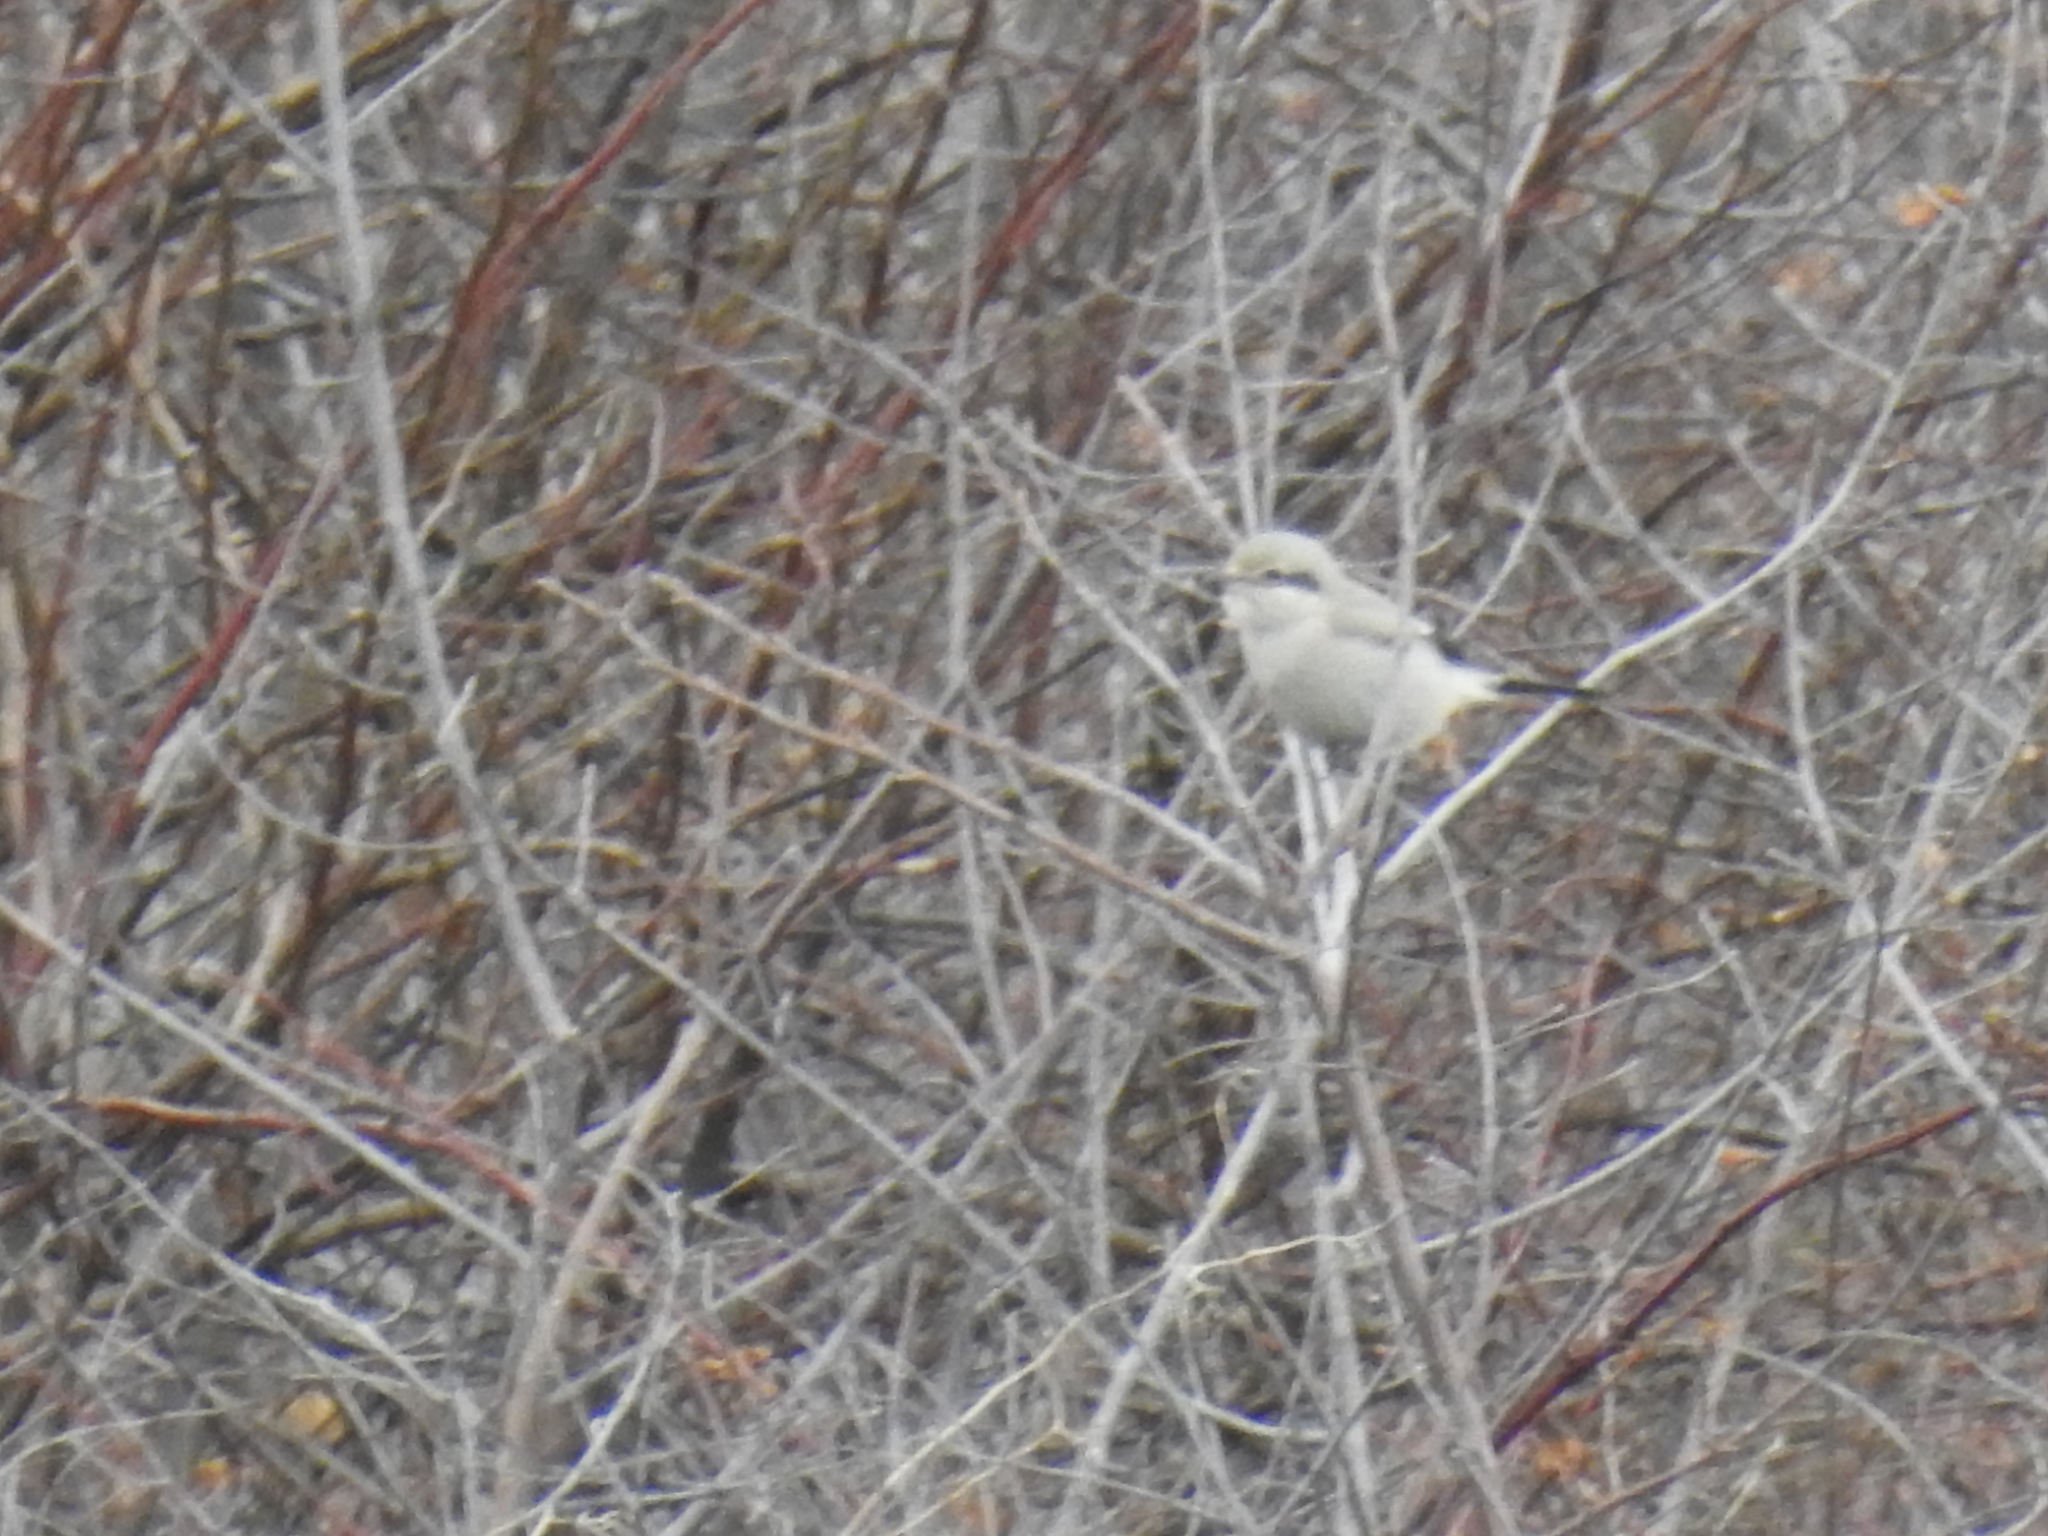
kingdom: Animalia
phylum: Chordata
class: Aves
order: Passeriformes
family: Laniidae
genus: Lanius
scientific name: Lanius borealis
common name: Northern shrike
